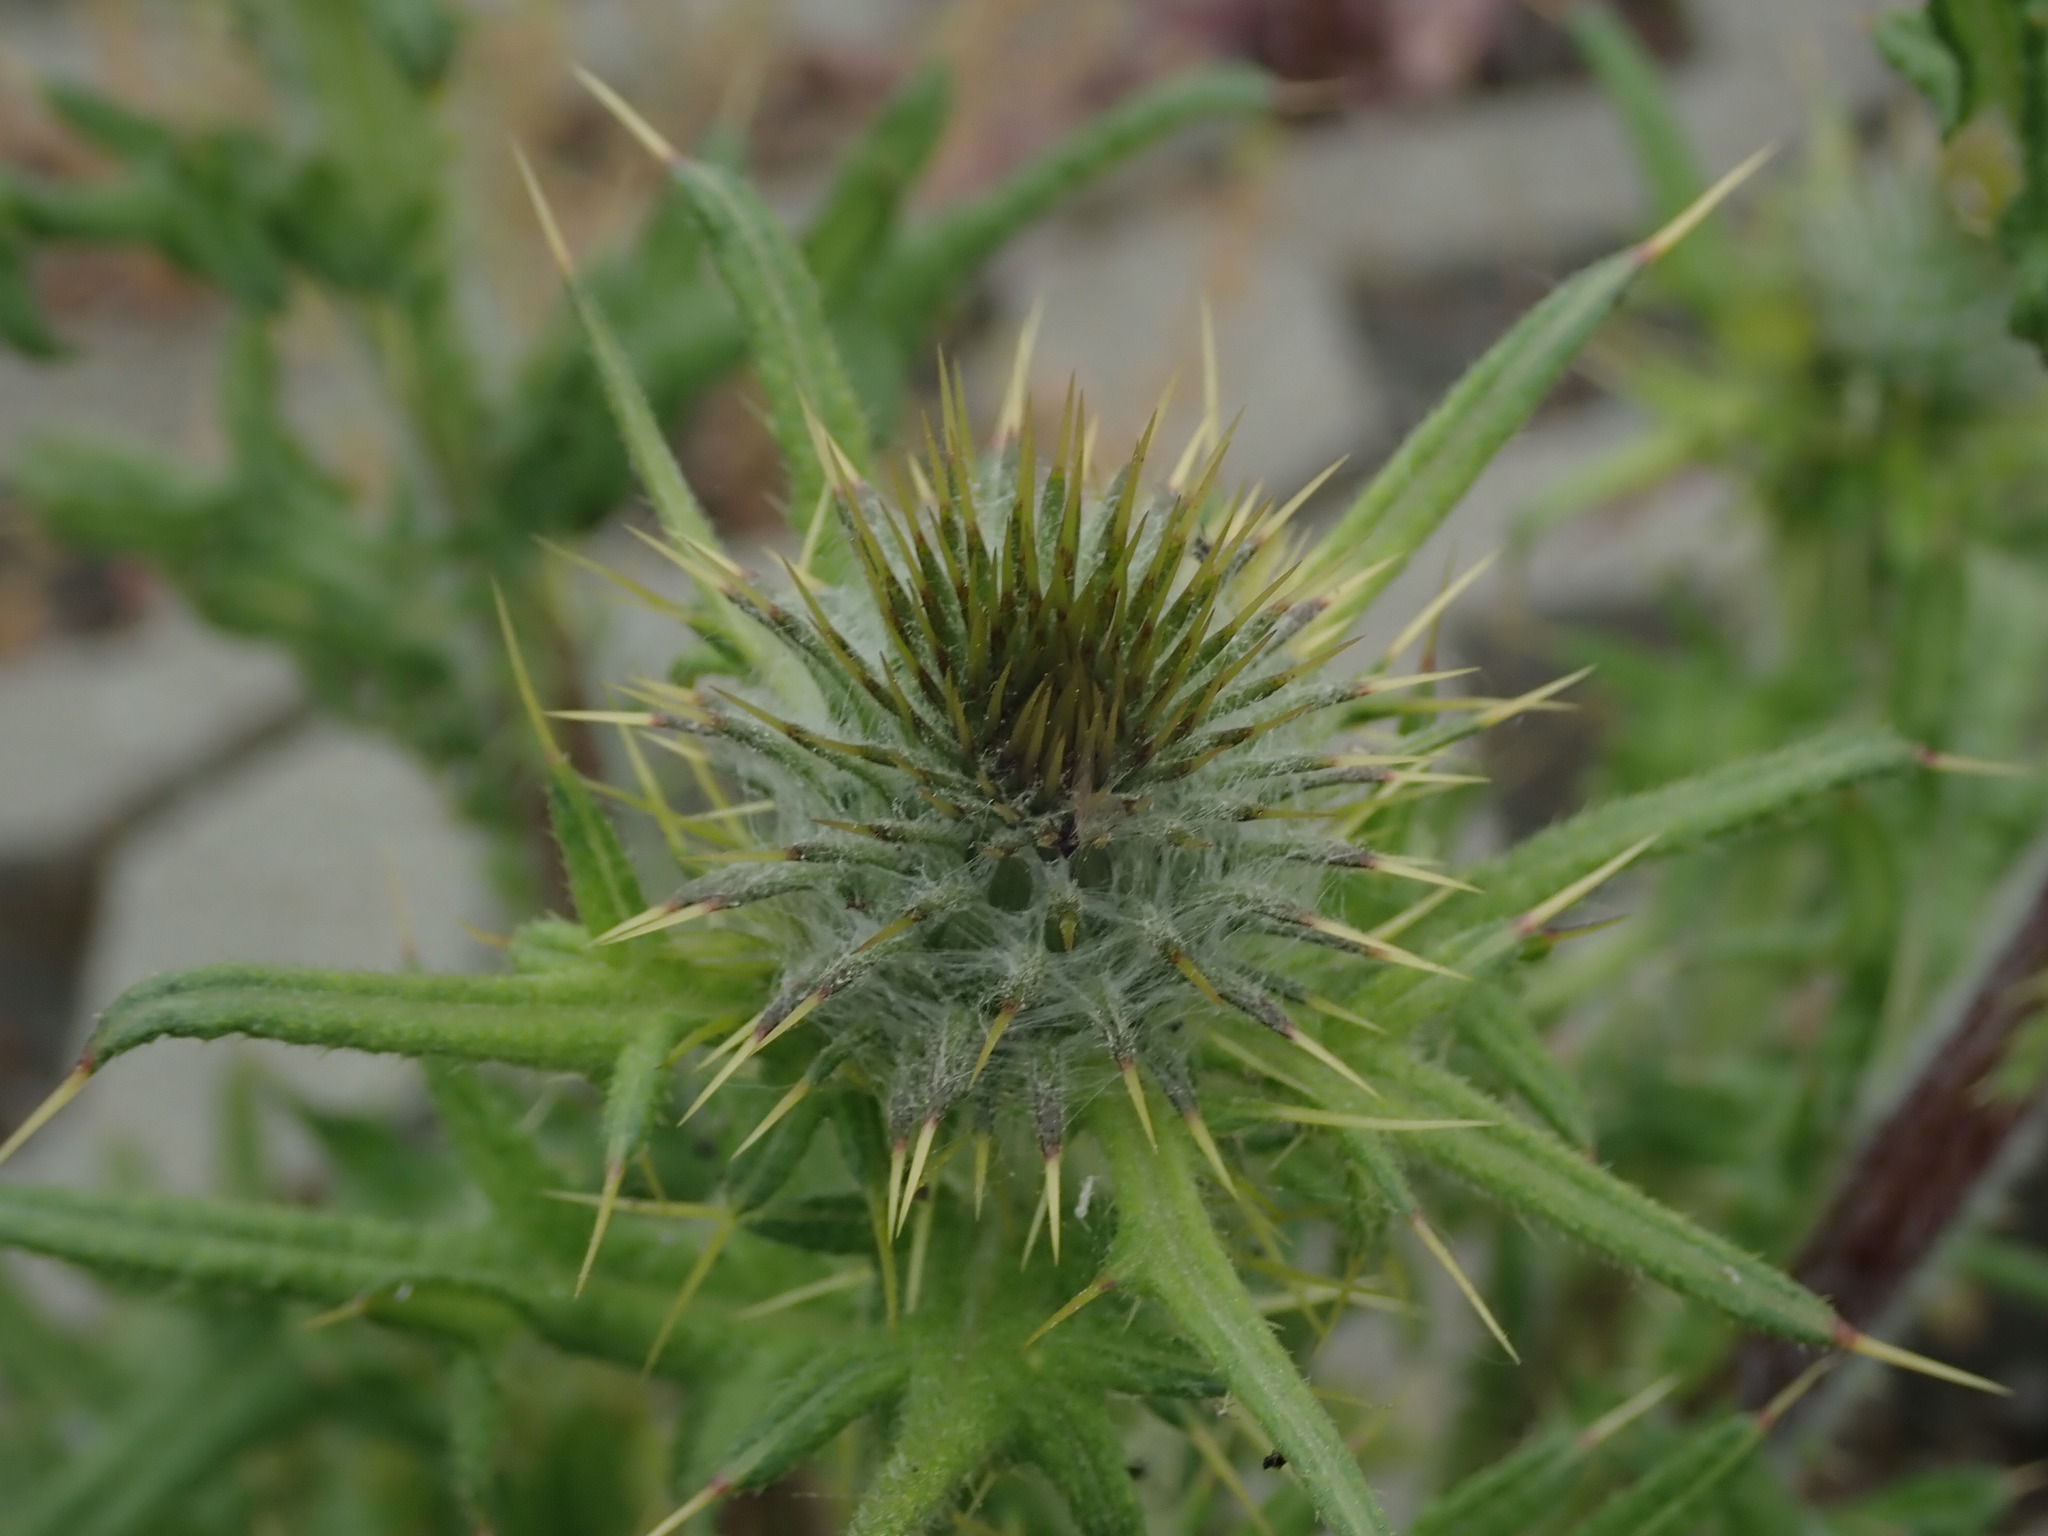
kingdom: Plantae
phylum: Tracheophyta
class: Magnoliopsida
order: Asterales
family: Asteraceae
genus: Cirsium
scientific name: Cirsium vulgare
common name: Bull thistle
